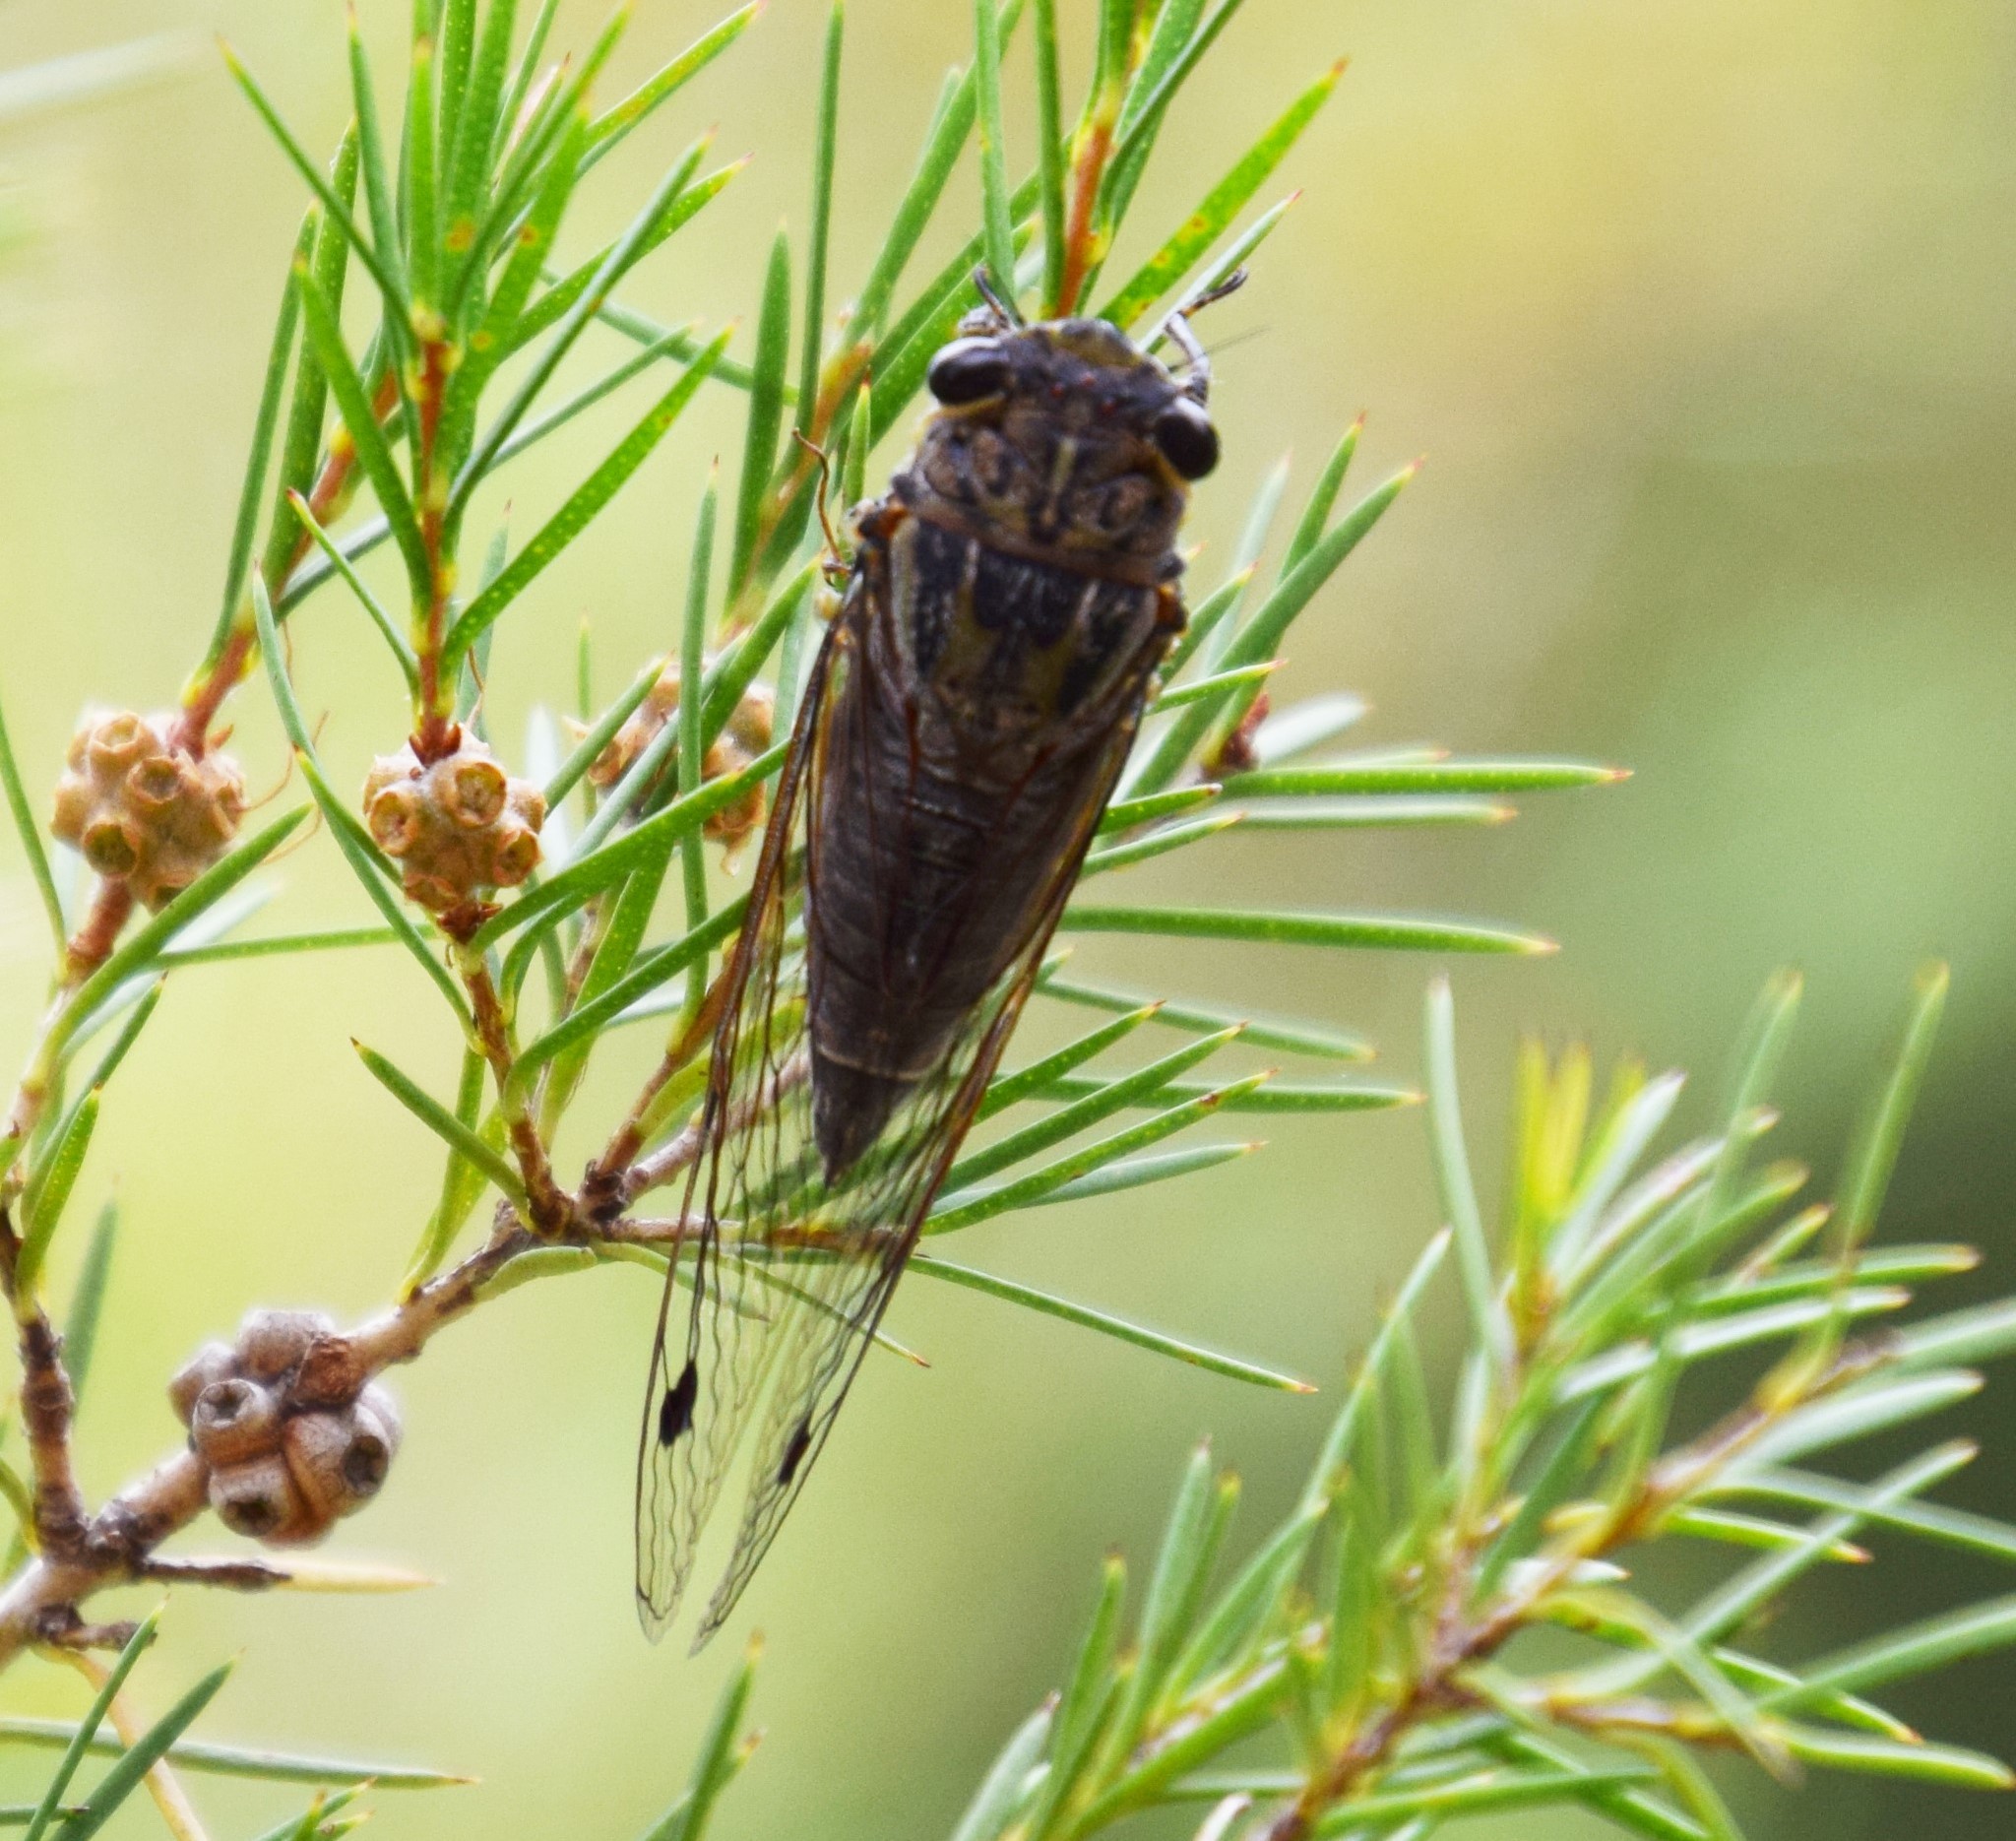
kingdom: Animalia
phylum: Arthropoda
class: Insecta
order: Hemiptera
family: Cicadidae
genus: Galanga
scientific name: Galanga labeculata
